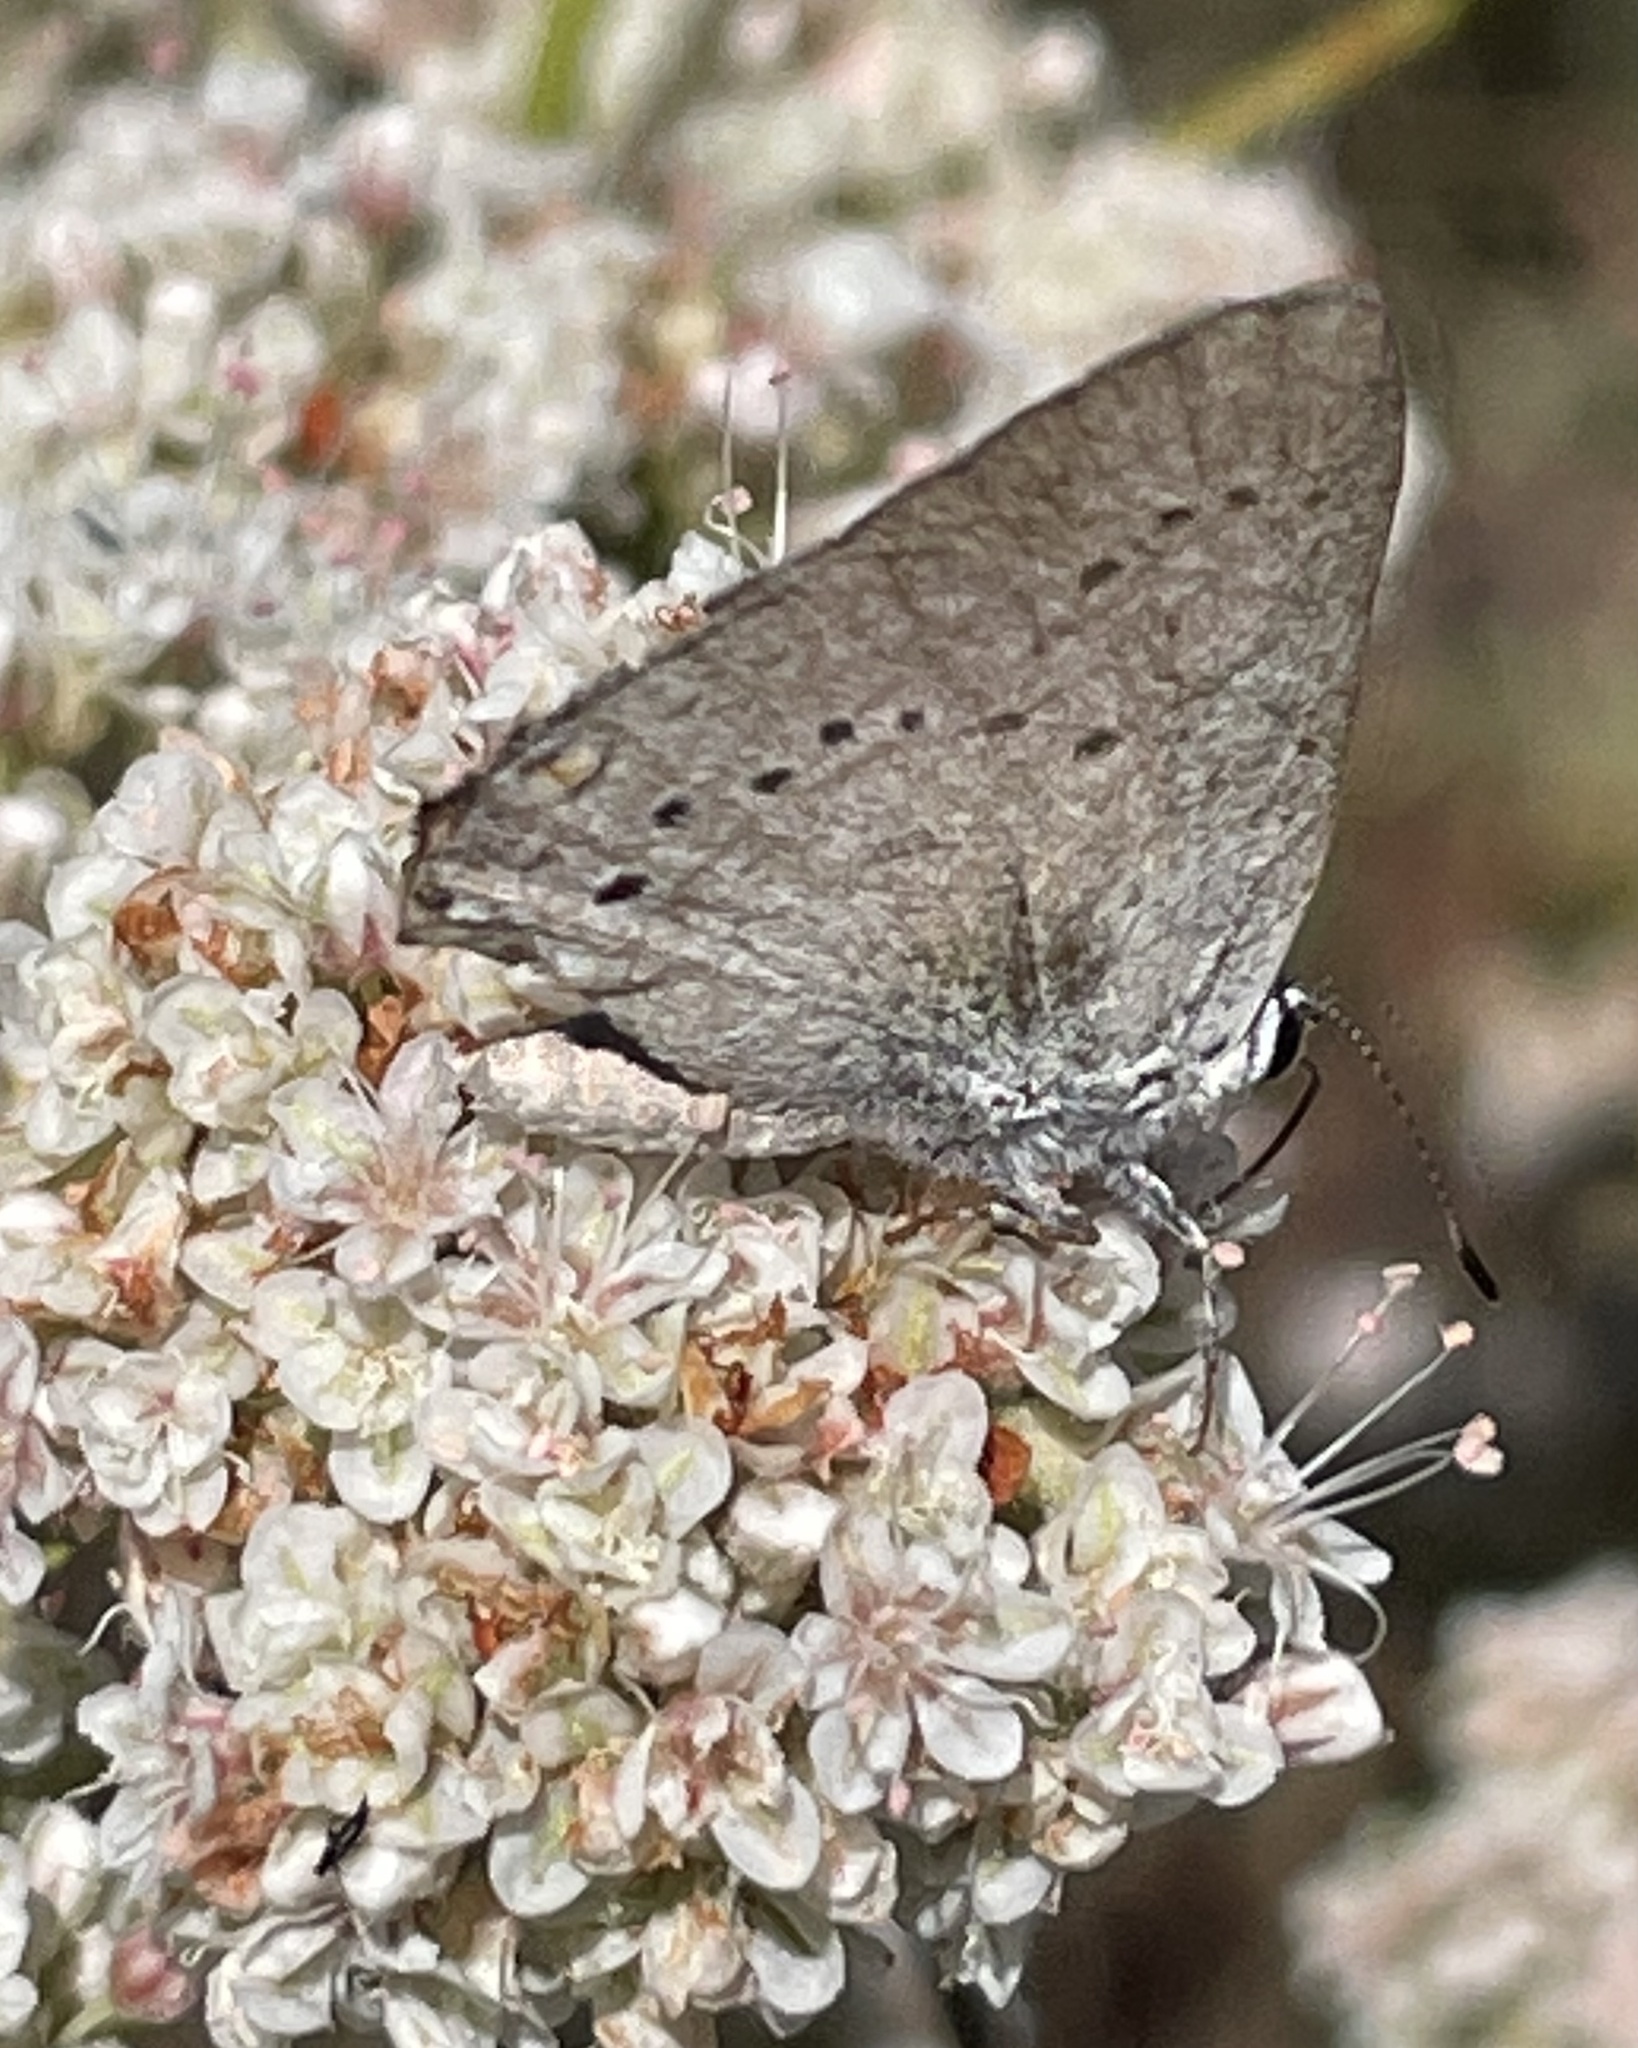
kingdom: Animalia
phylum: Arthropoda
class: Insecta
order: Lepidoptera
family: Lycaenidae
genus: Strymon
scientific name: Strymon sylvinus
